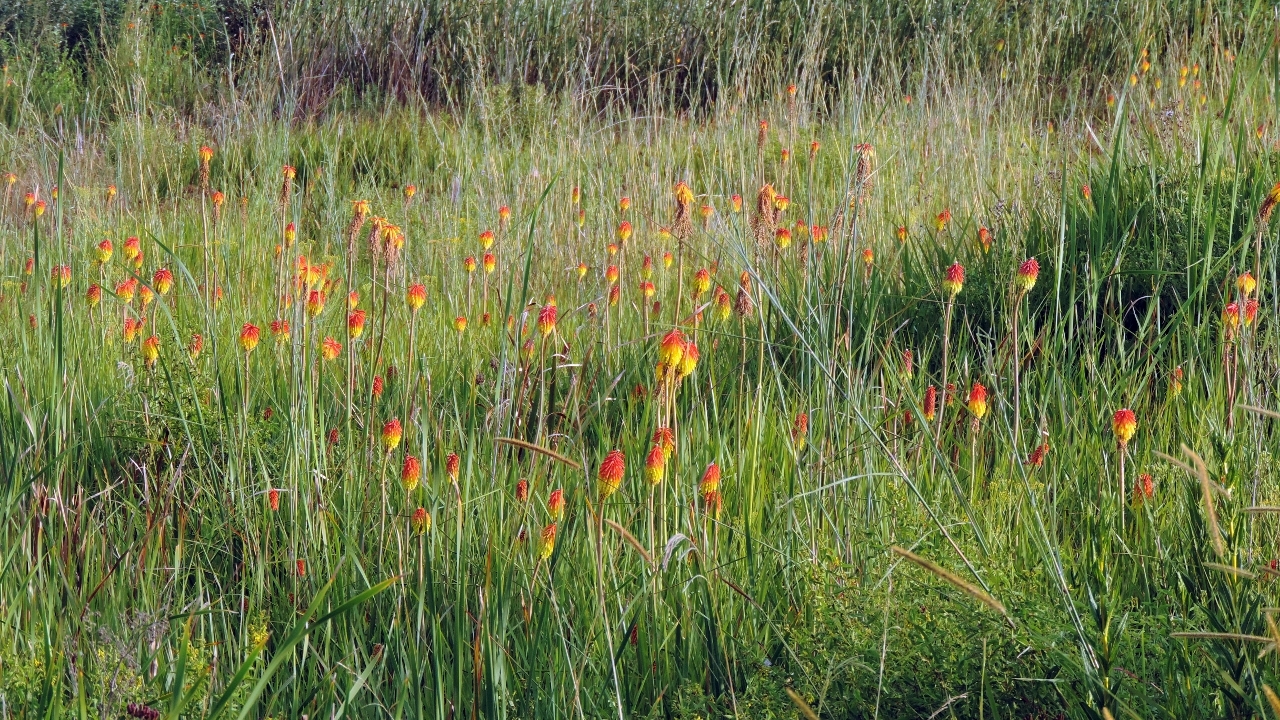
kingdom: Plantae
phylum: Tracheophyta
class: Liliopsida
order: Asparagales
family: Asphodelaceae
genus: Kniphofia
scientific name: Kniphofia linearifolia
